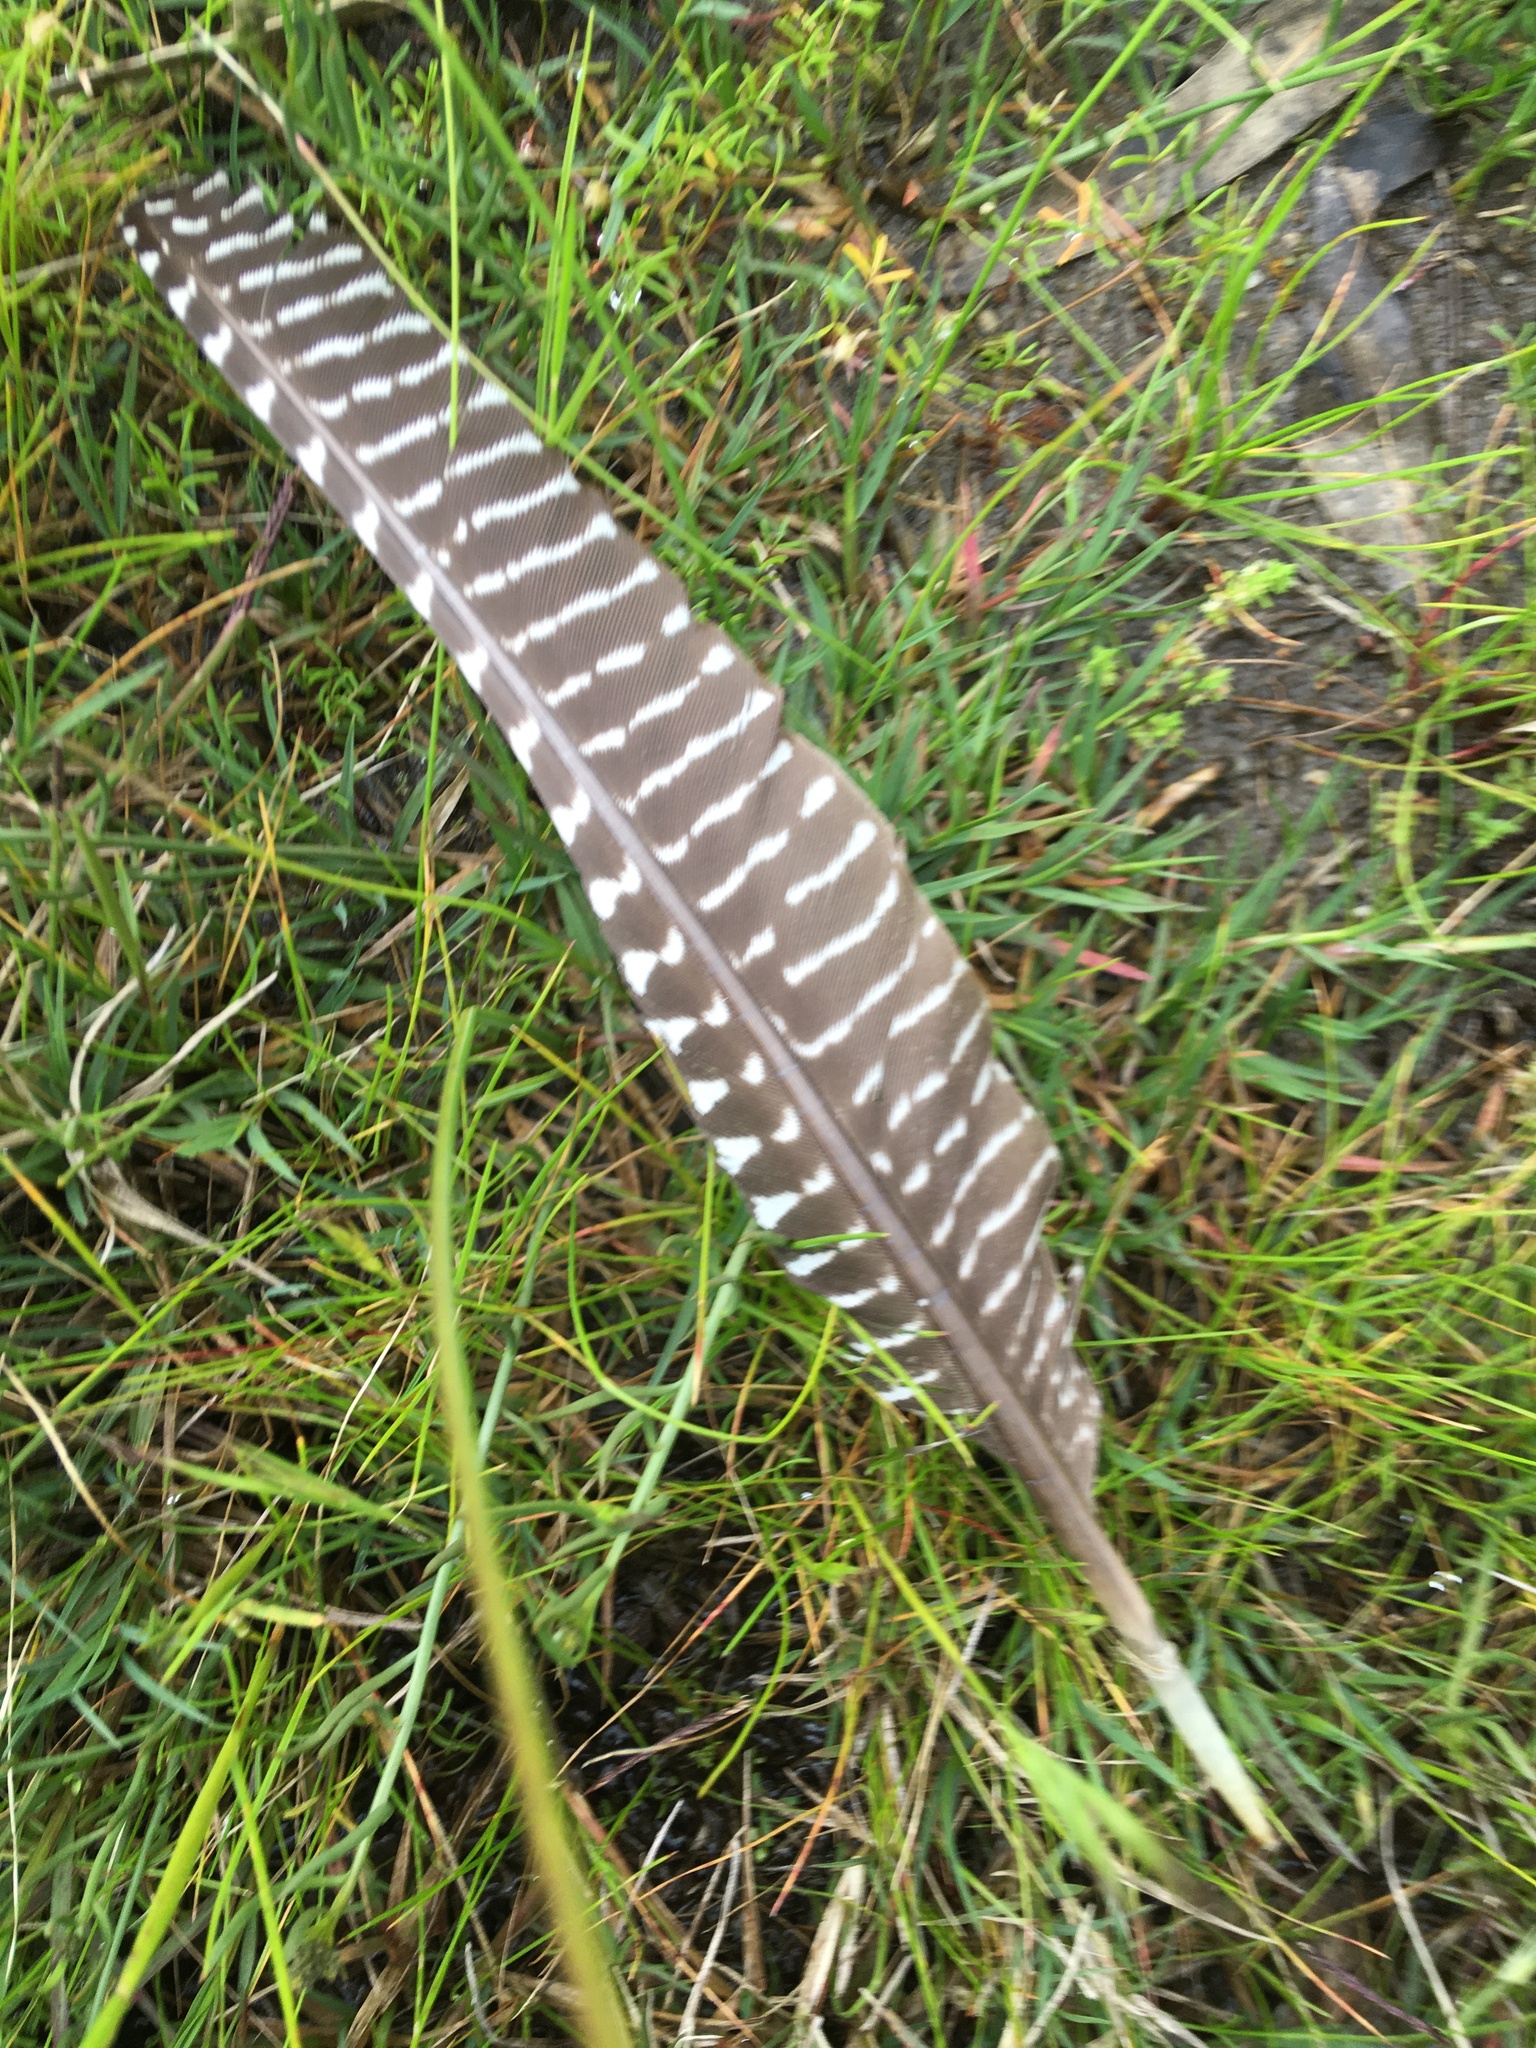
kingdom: Animalia
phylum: Chordata
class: Aves
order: Galliformes
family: Numididae
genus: Numida
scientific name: Numida meleagris
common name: Helmeted guineafowl
